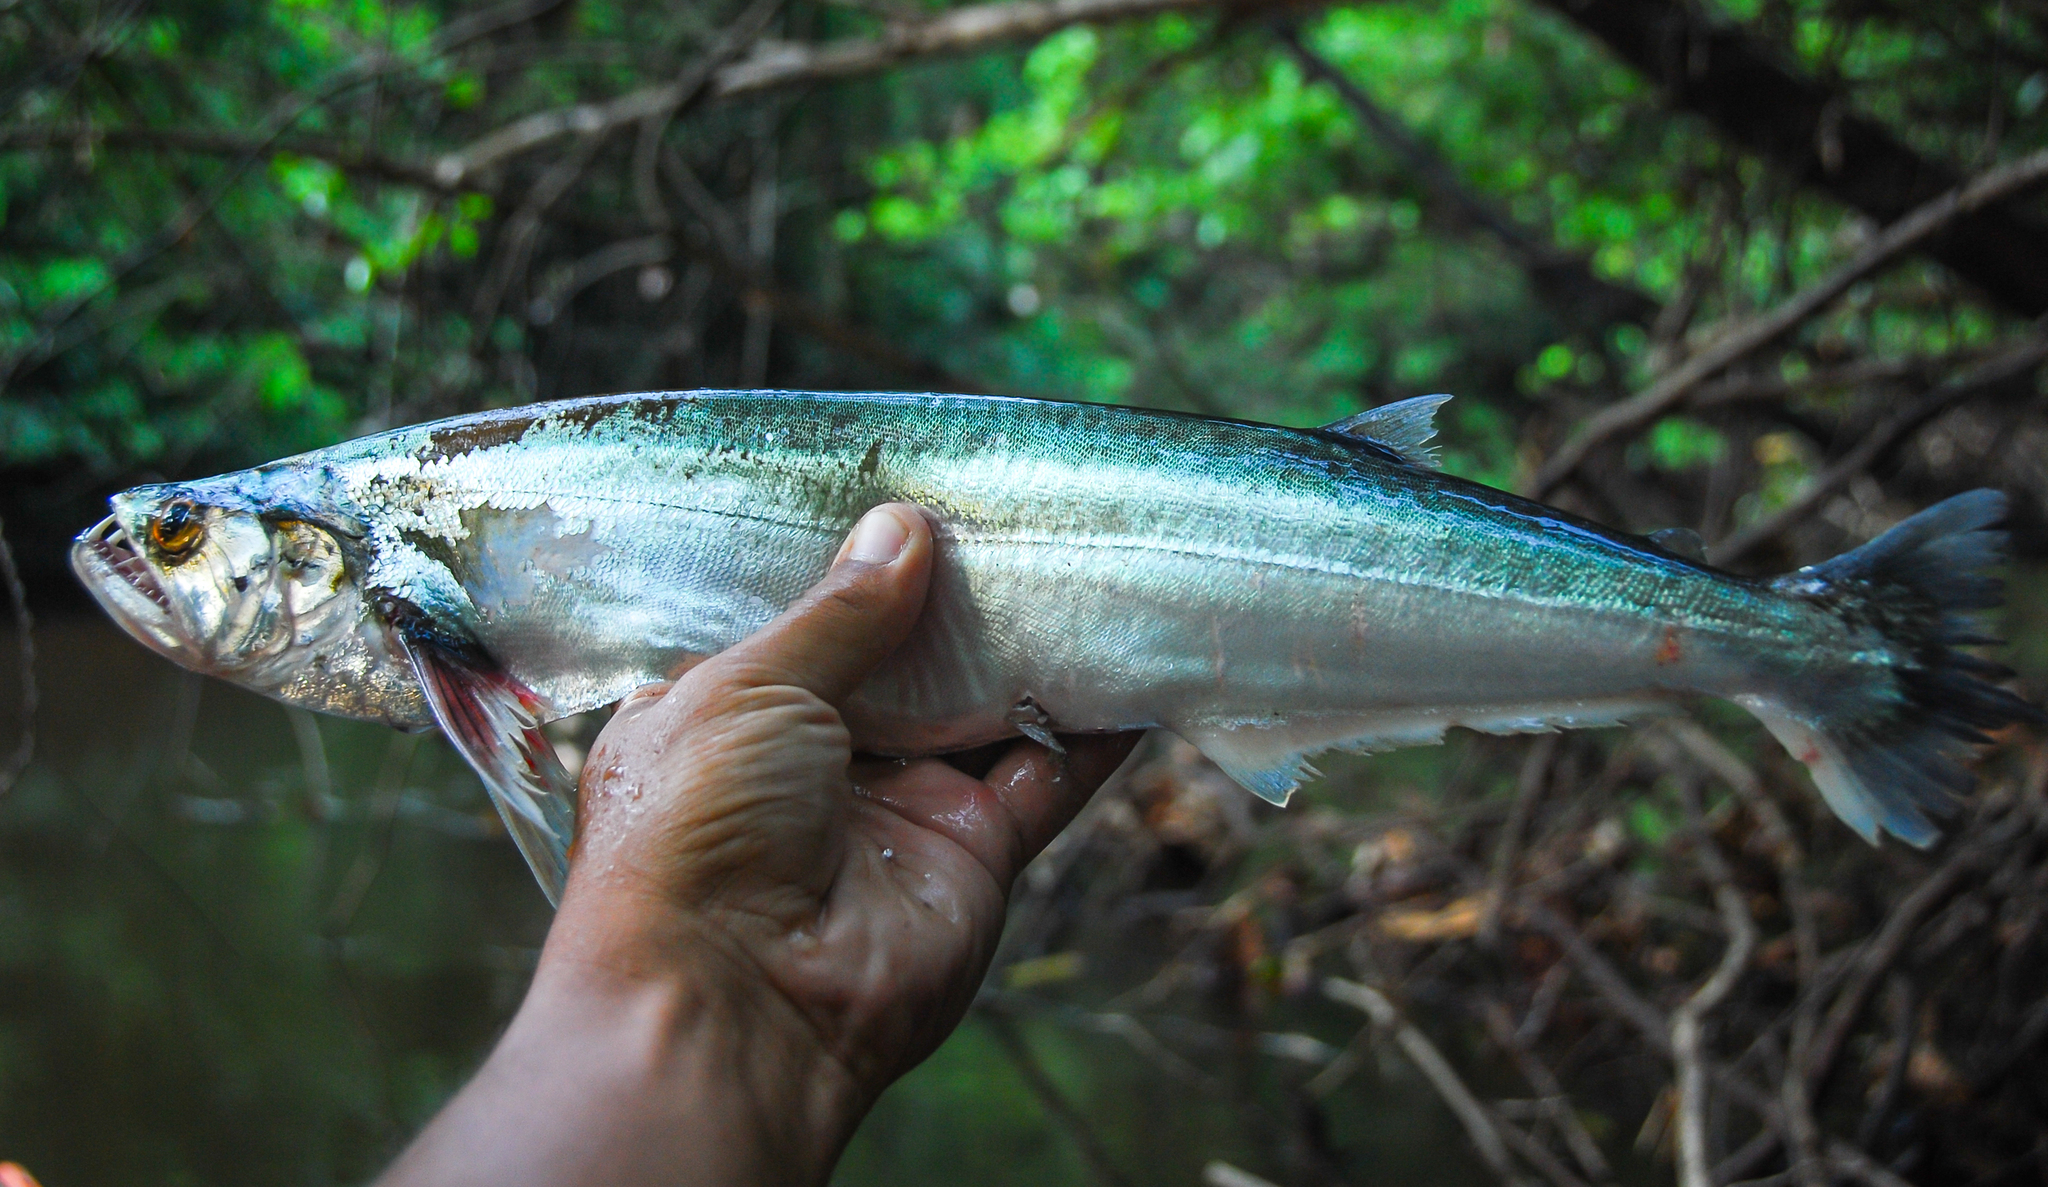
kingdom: Animalia
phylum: Chordata
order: Characiformes
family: Cynodontidae
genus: Rhaphiodon
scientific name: Rhaphiodon vulpinus
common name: Biara
